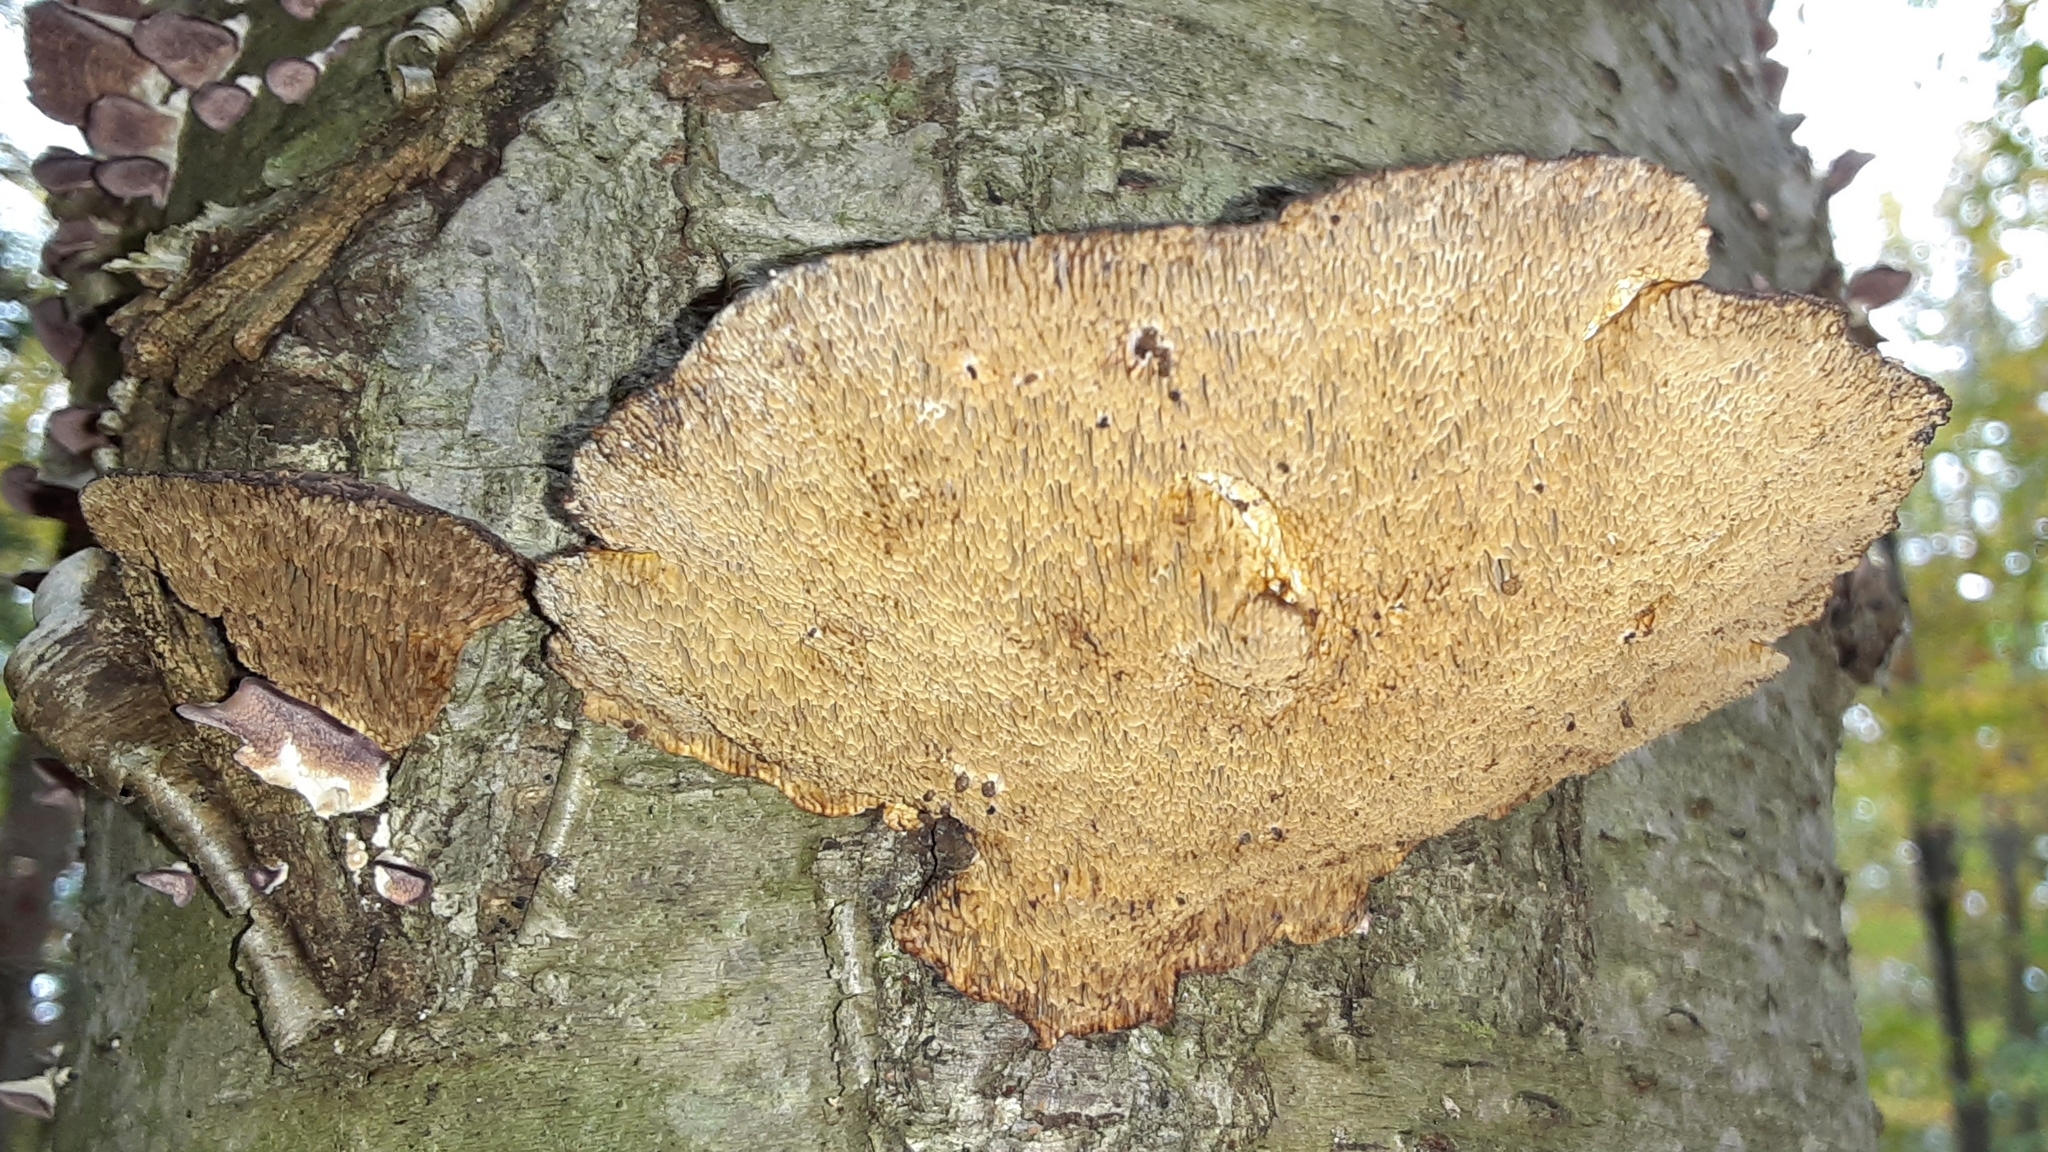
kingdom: Fungi
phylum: Basidiomycota
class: Agaricomycetes
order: Polyporales
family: Polyporaceae
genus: Daedaleopsis
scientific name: Daedaleopsis confragosa
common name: Blushing bracket
